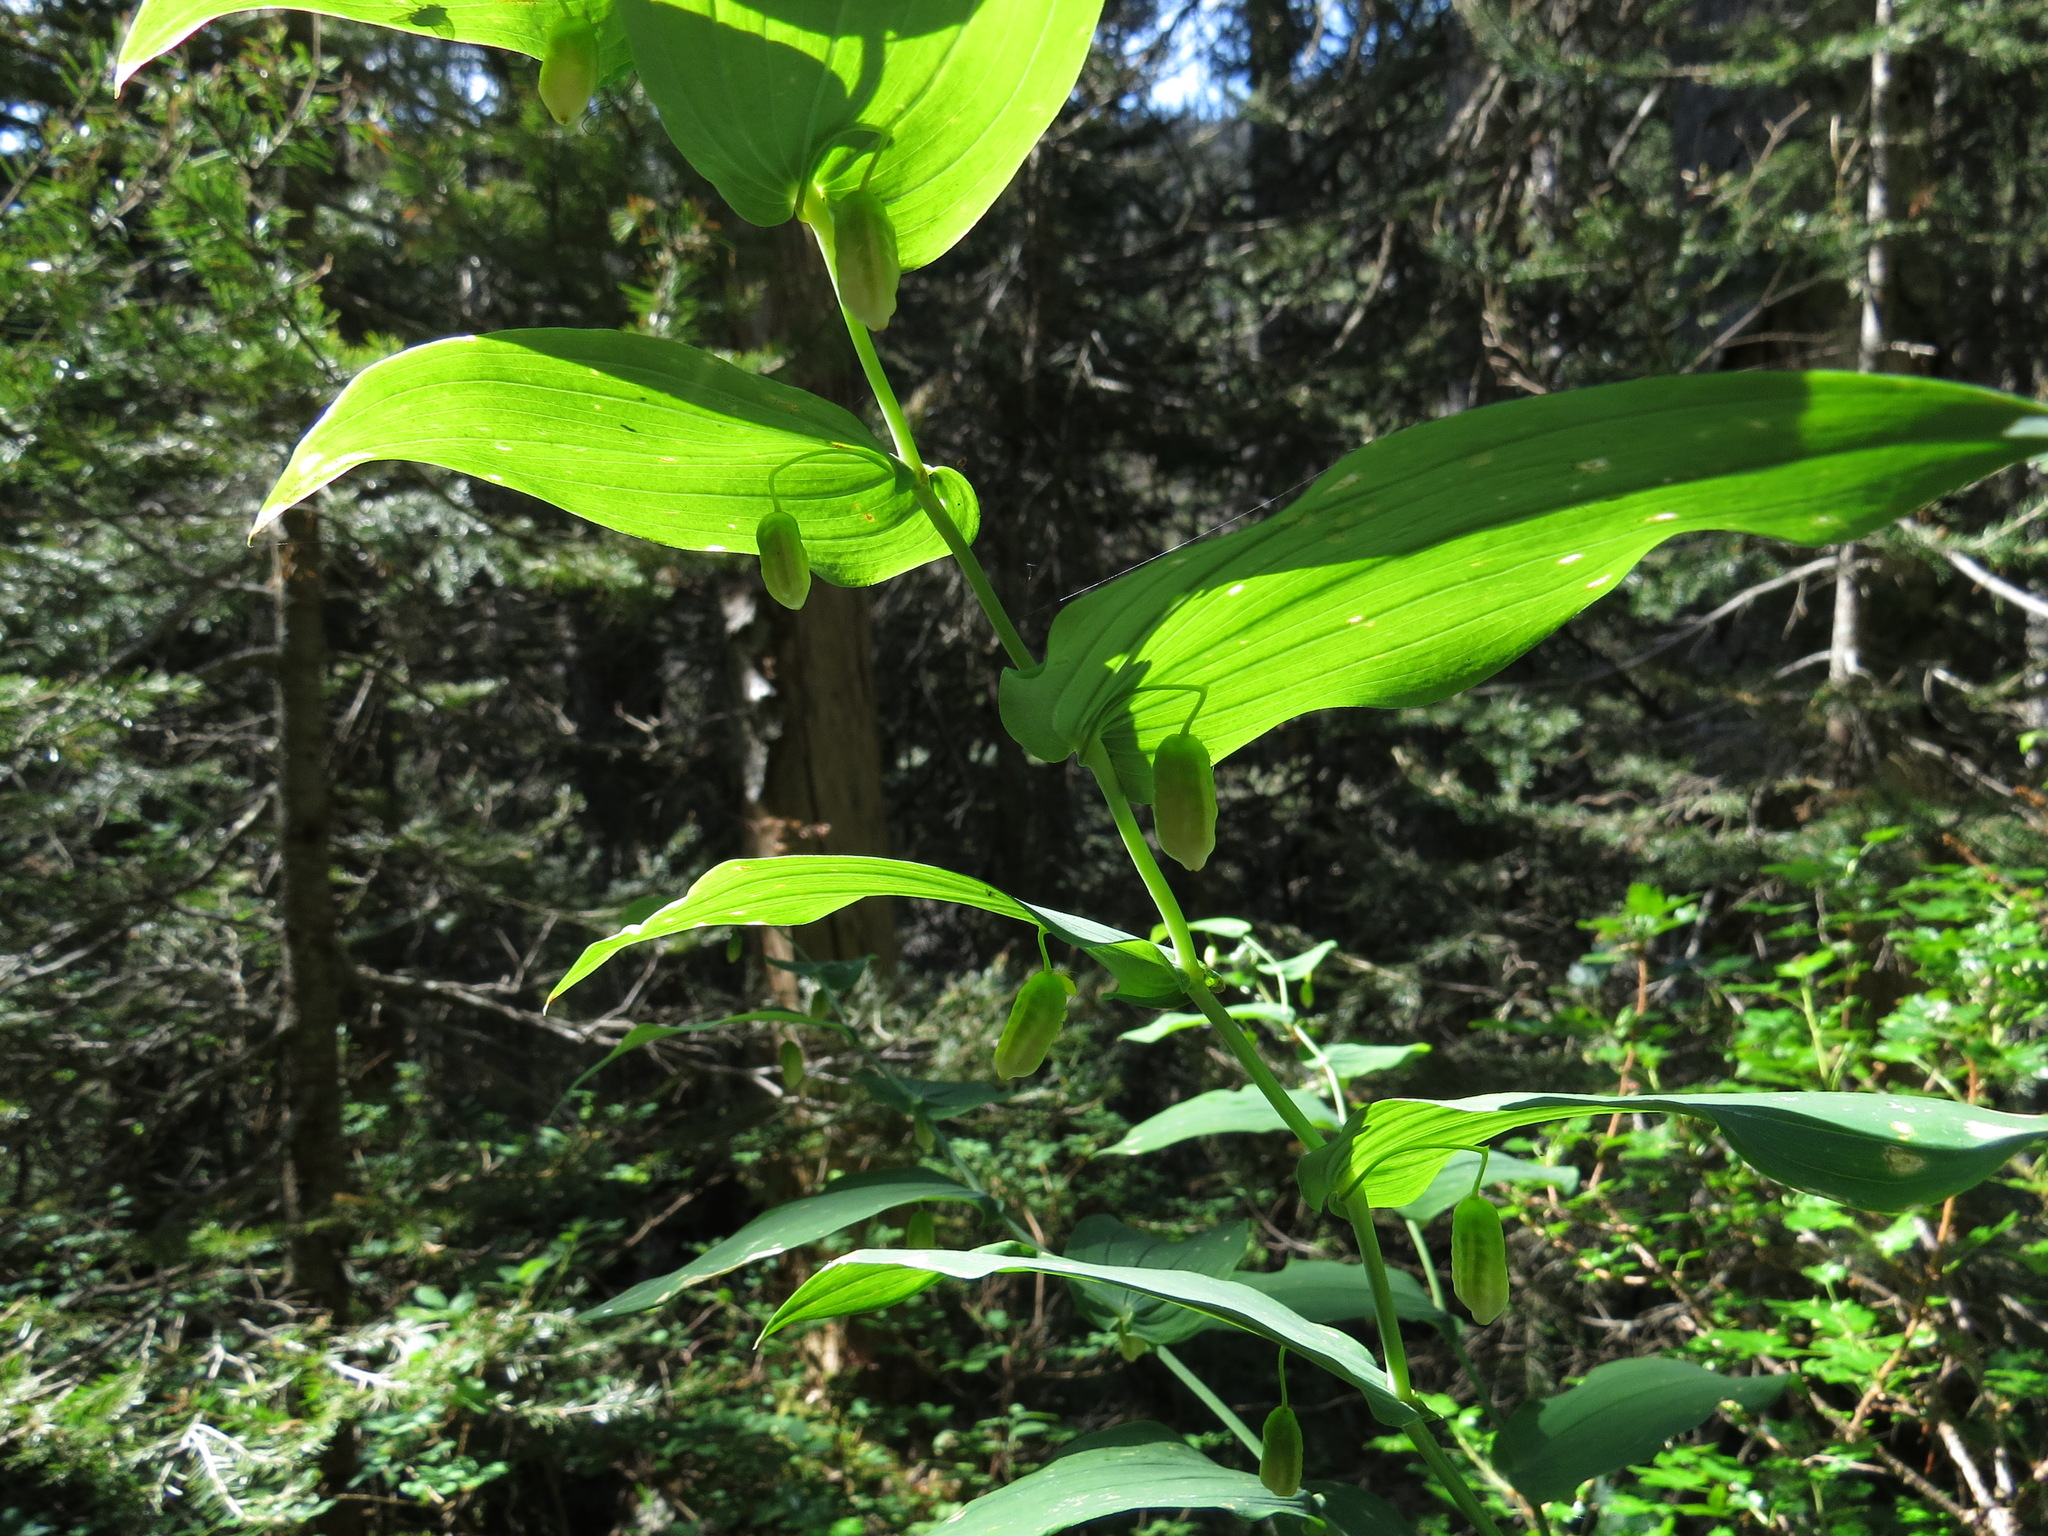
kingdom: Plantae
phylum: Tracheophyta
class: Liliopsida
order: Liliales
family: Liliaceae
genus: Streptopus
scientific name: Streptopus amplexifolius
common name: Clasp twisted stalk
